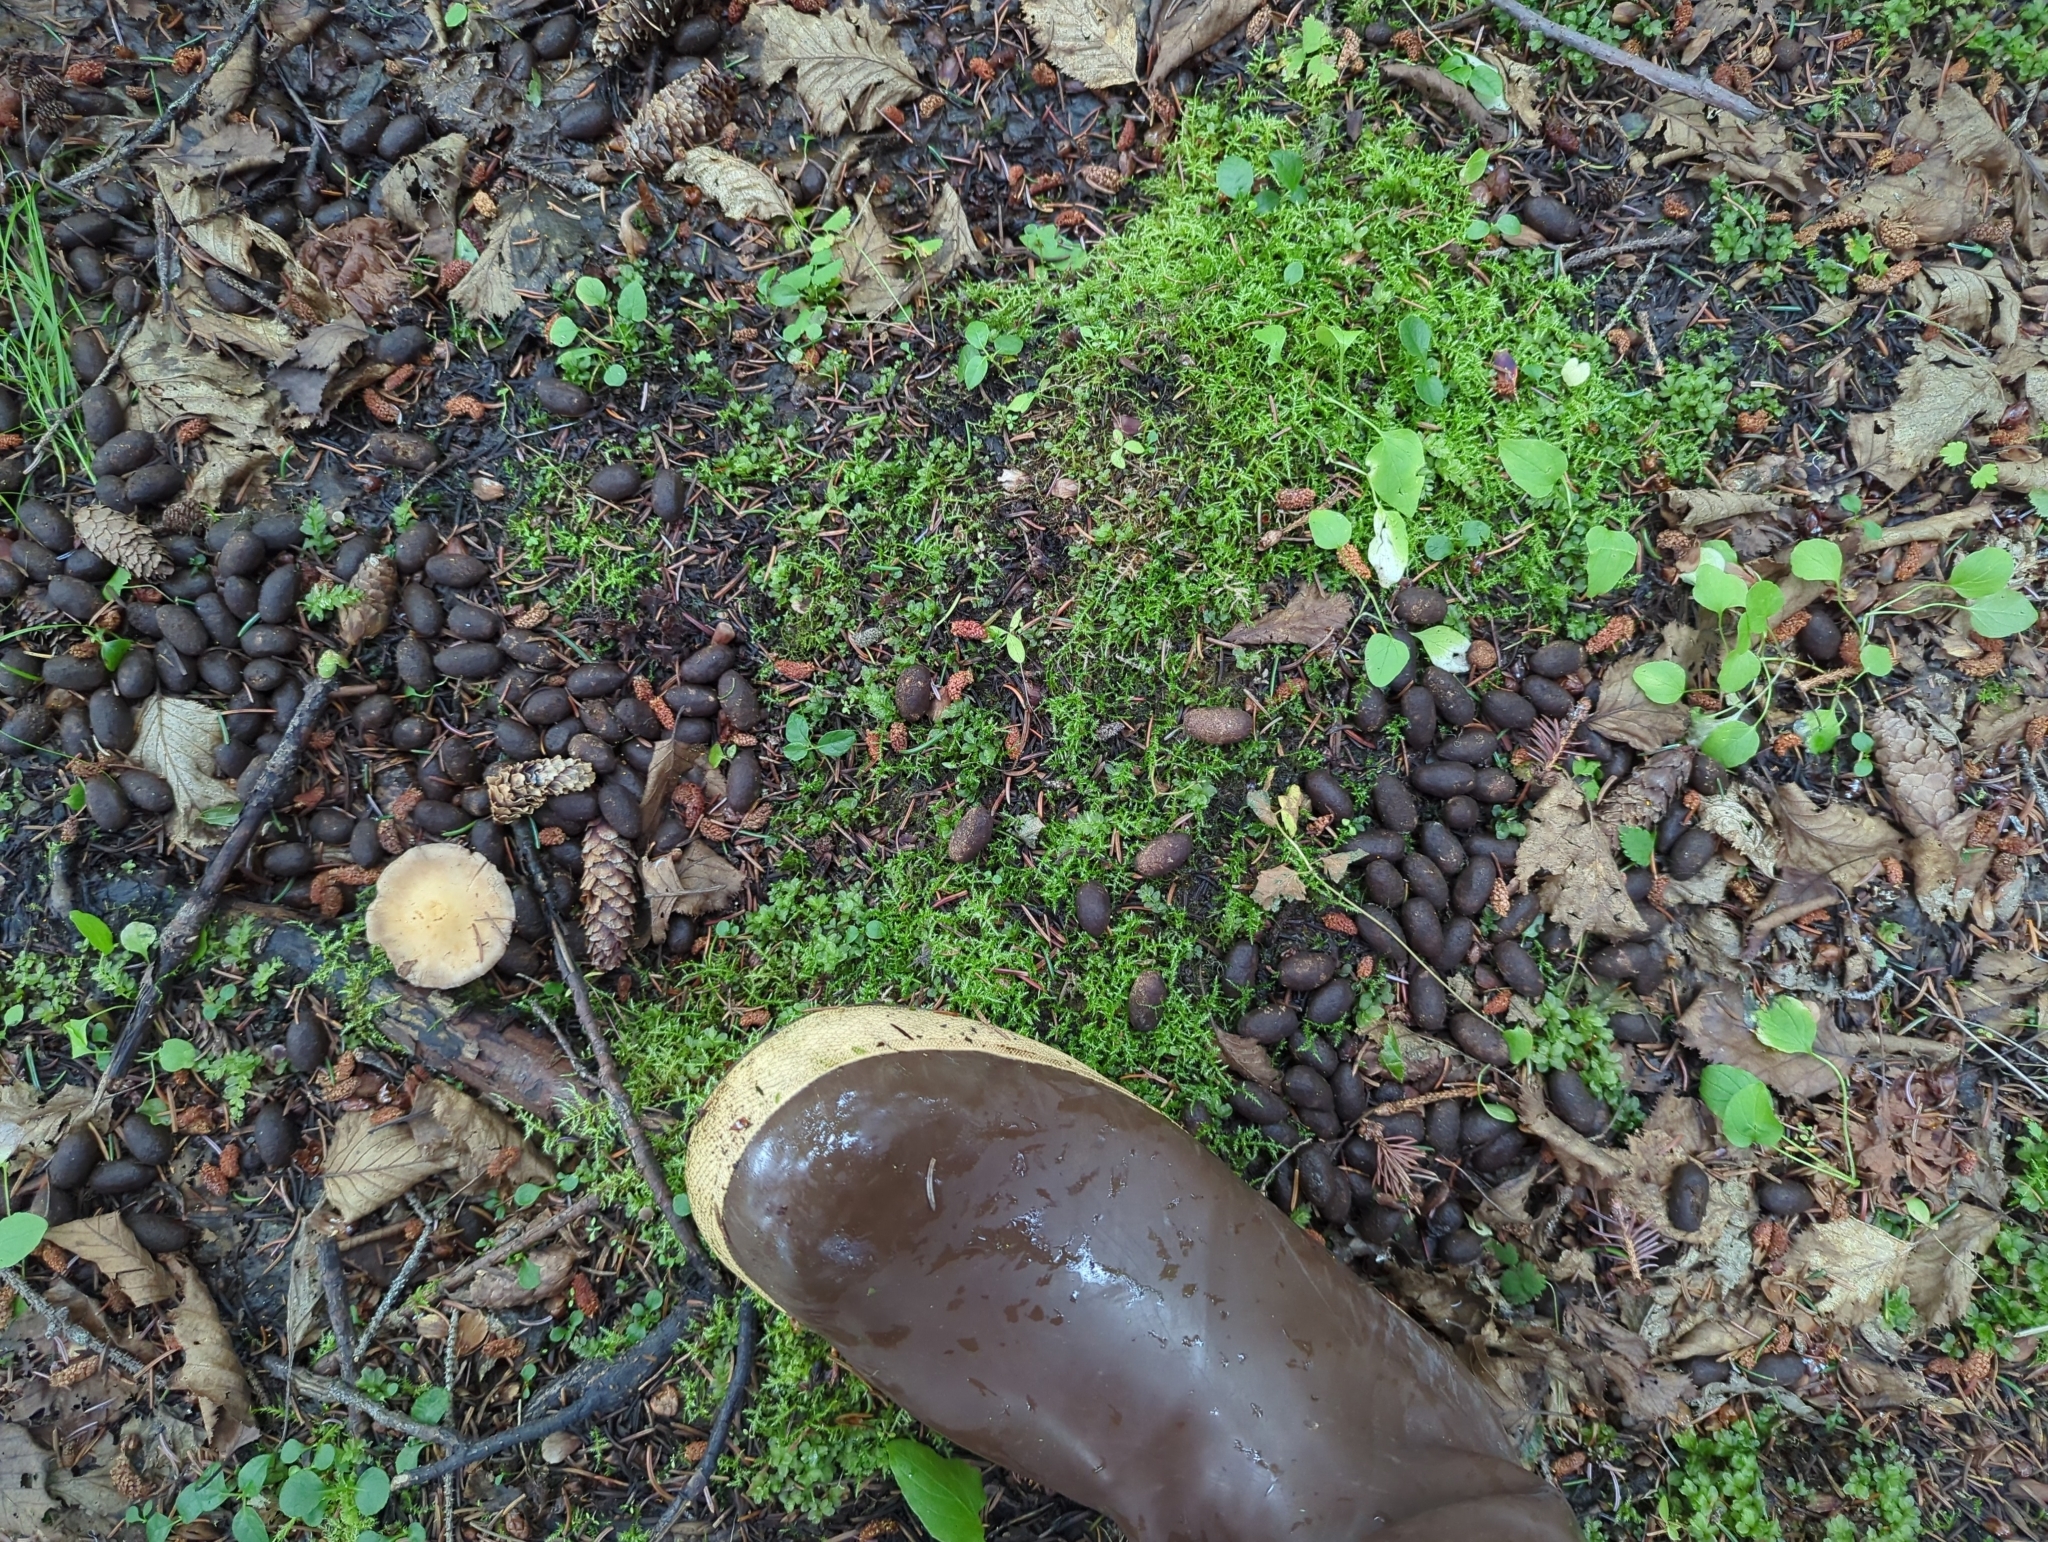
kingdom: Animalia
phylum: Chordata
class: Mammalia
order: Artiodactyla
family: Cervidae
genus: Alces
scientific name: Alces alces
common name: Moose
